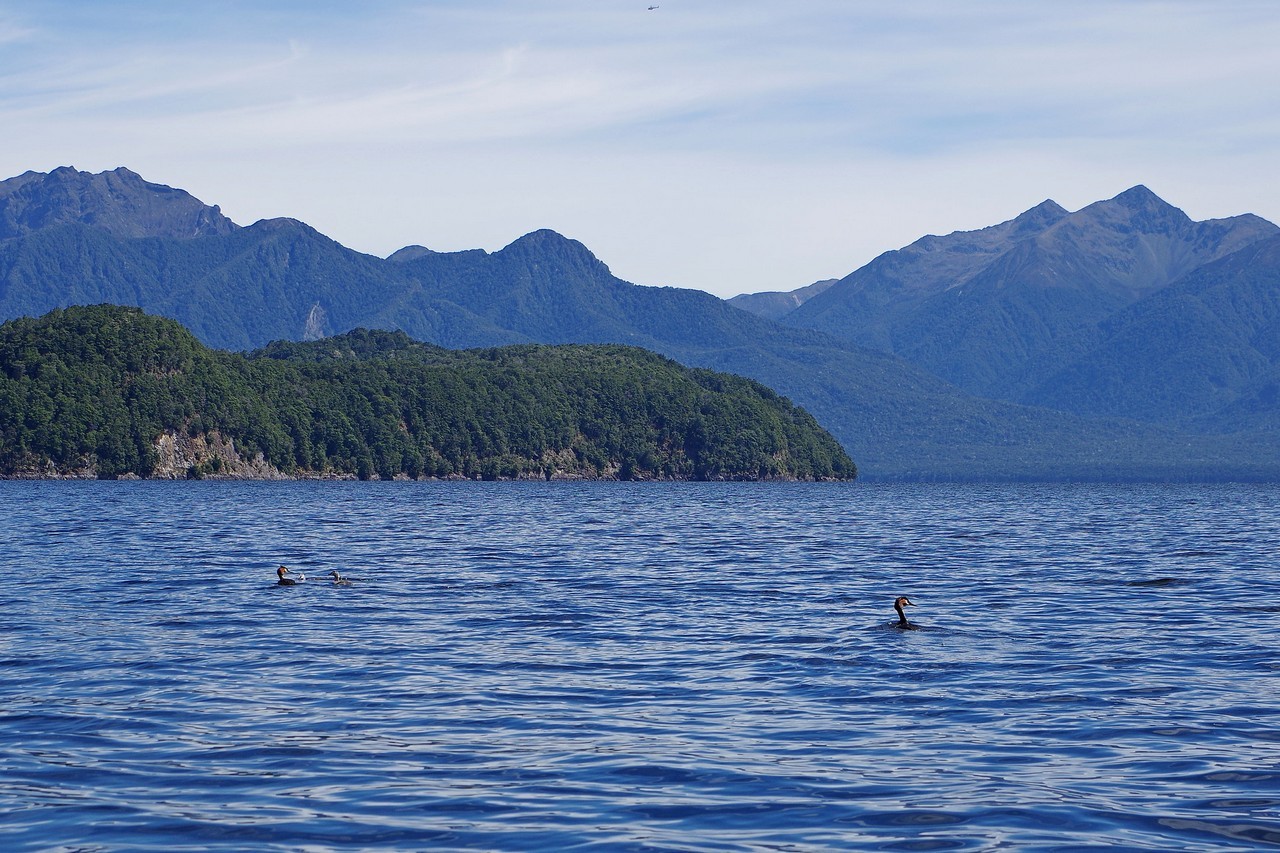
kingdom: Animalia
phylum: Chordata
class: Aves
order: Podicipediformes
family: Podicipedidae
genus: Podiceps
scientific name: Podiceps cristatus
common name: Great crested grebe
